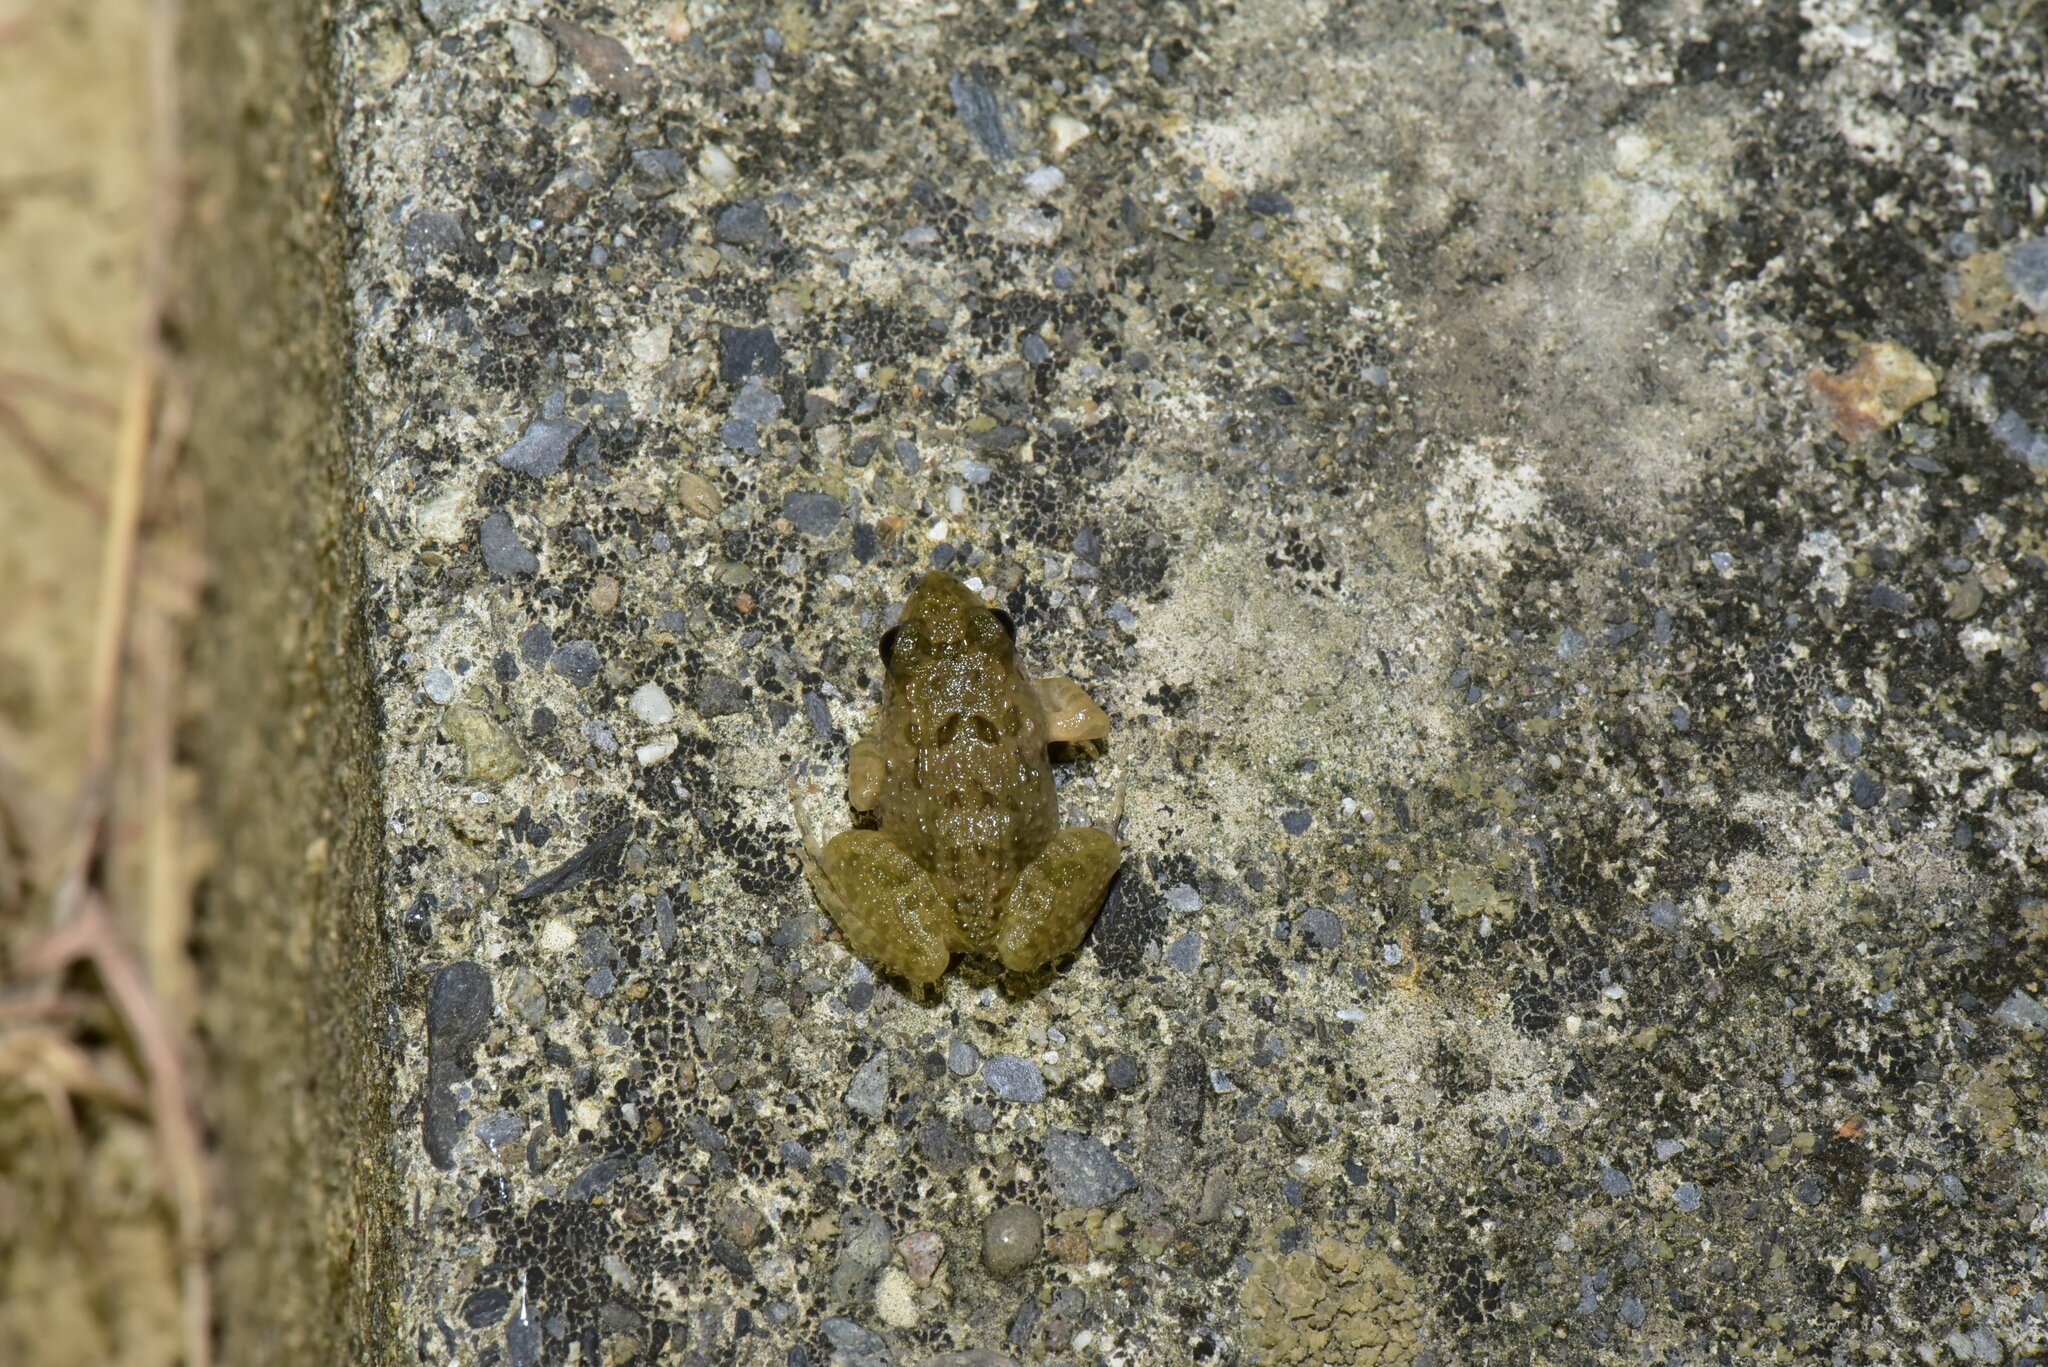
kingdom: Animalia
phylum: Chordata
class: Amphibia
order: Anura
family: Dicroglossidae
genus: Fejervarya
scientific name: Fejervarya limnocharis
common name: Asian grass frog/common pond frog/field frog/grass frog/indian rice frog
